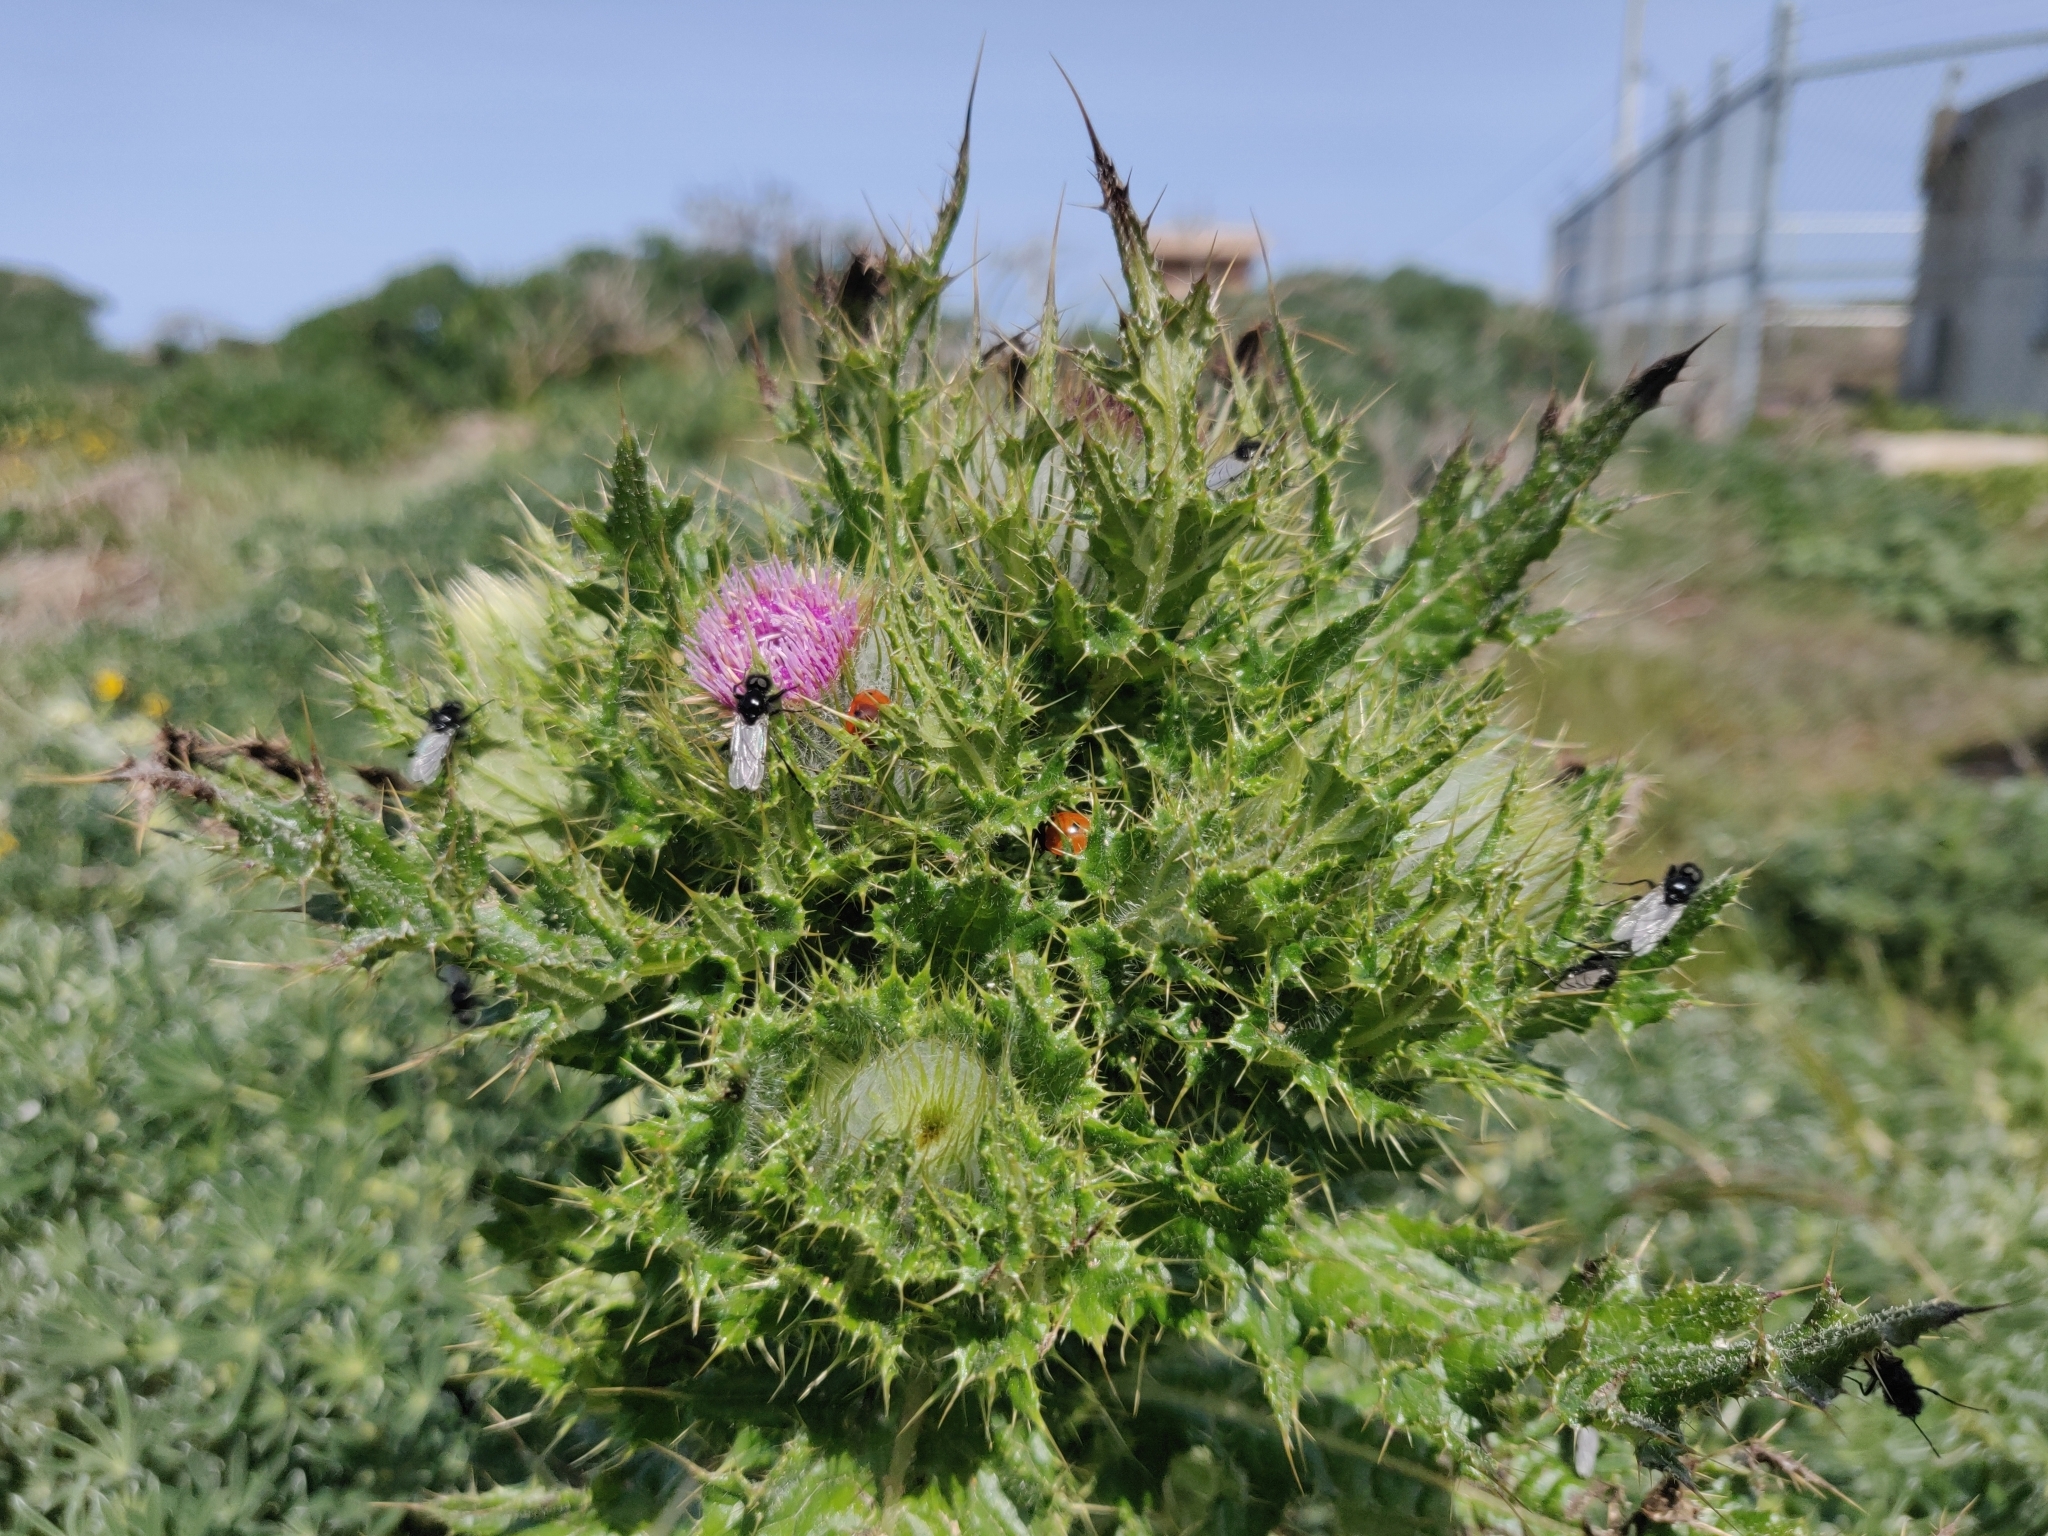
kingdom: Plantae
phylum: Tracheophyta
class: Magnoliopsida
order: Asterales
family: Asteraceae
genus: Cirsium
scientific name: Cirsium brevistylum
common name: Indian thistle
